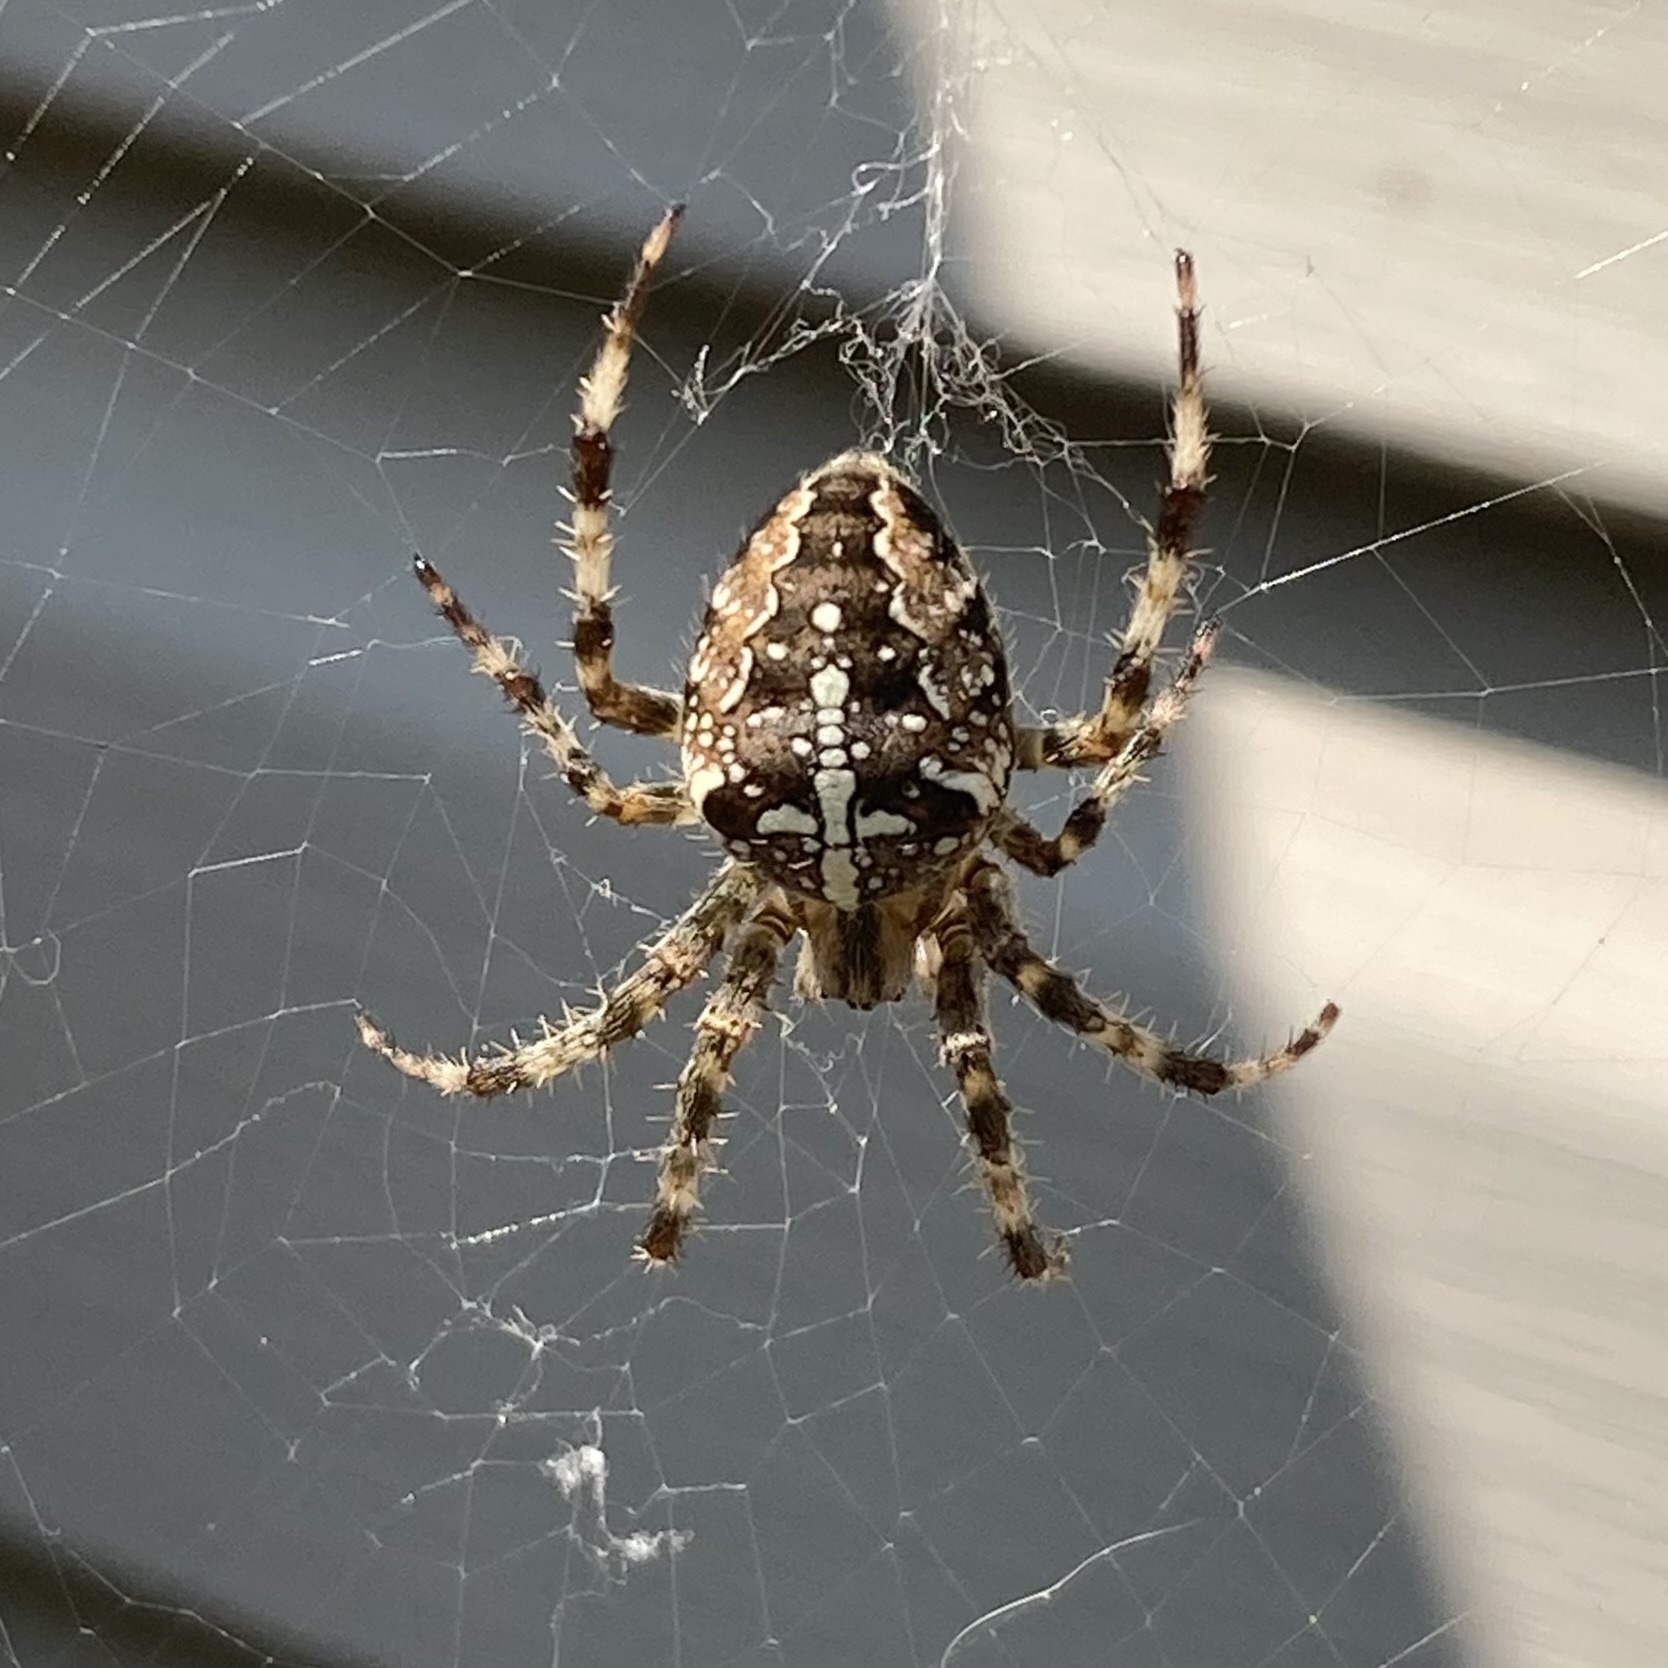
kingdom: Animalia
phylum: Arthropoda
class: Arachnida
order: Araneae
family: Araneidae
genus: Araneus
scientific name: Araneus diadematus
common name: Cross orbweaver
